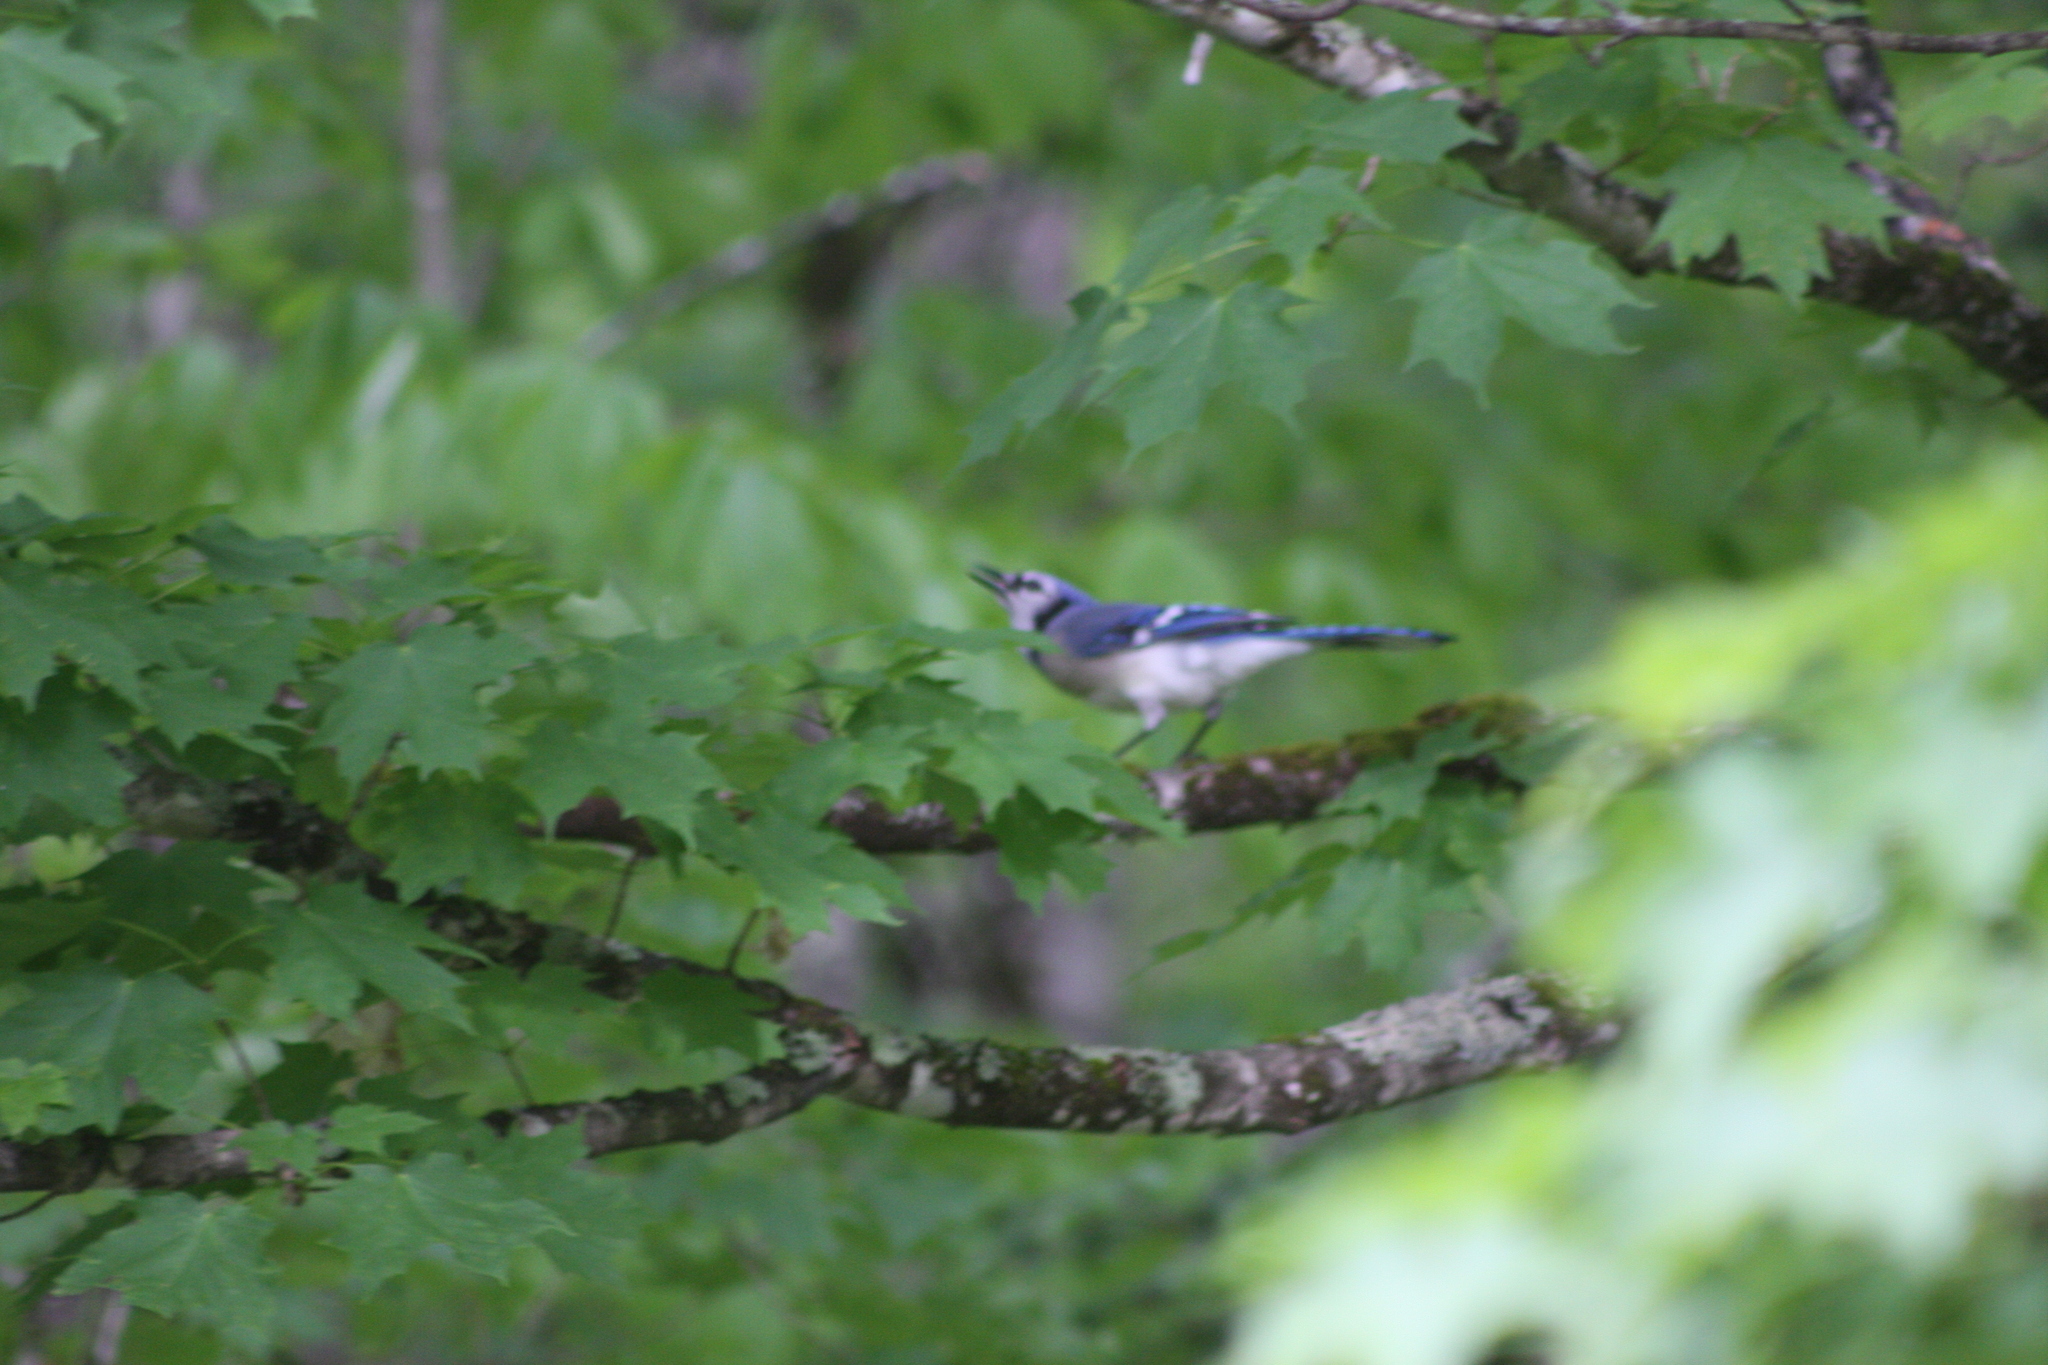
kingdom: Animalia
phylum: Chordata
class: Aves
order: Passeriformes
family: Corvidae
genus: Cyanocitta
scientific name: Cyanocitta cristata
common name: Blue jay
